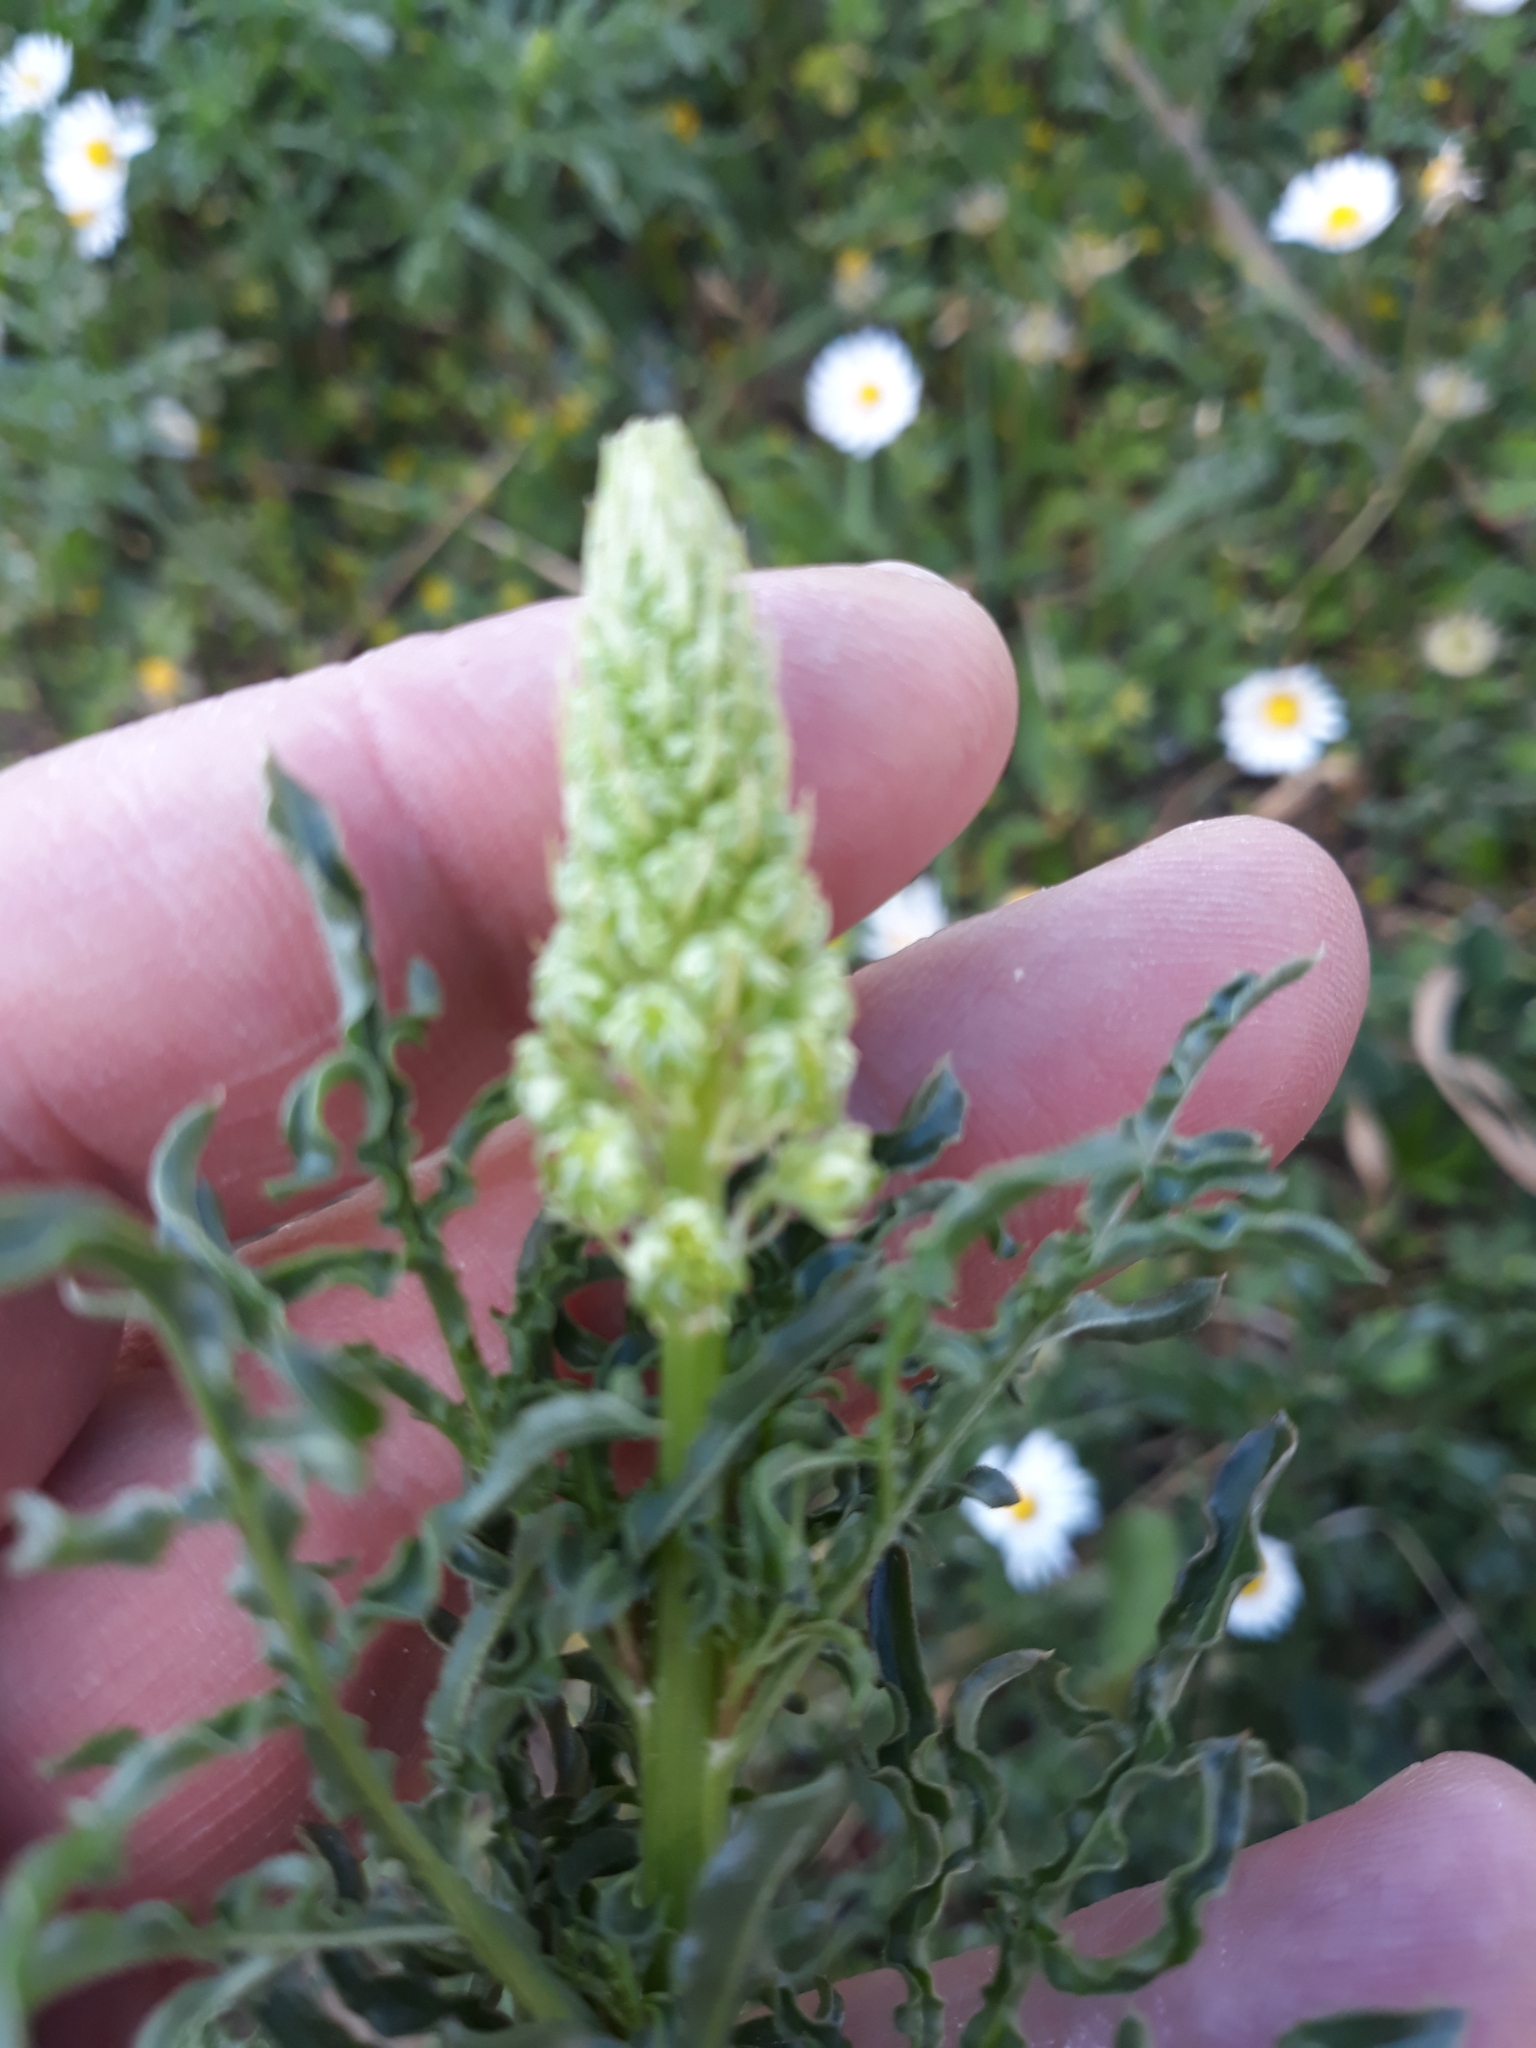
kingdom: Plantae
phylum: Tracheophyta
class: Magnoliopsida
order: Brassicales
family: Resedaceae
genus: Reseda
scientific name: Reseda lutea
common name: Wild mignonette
